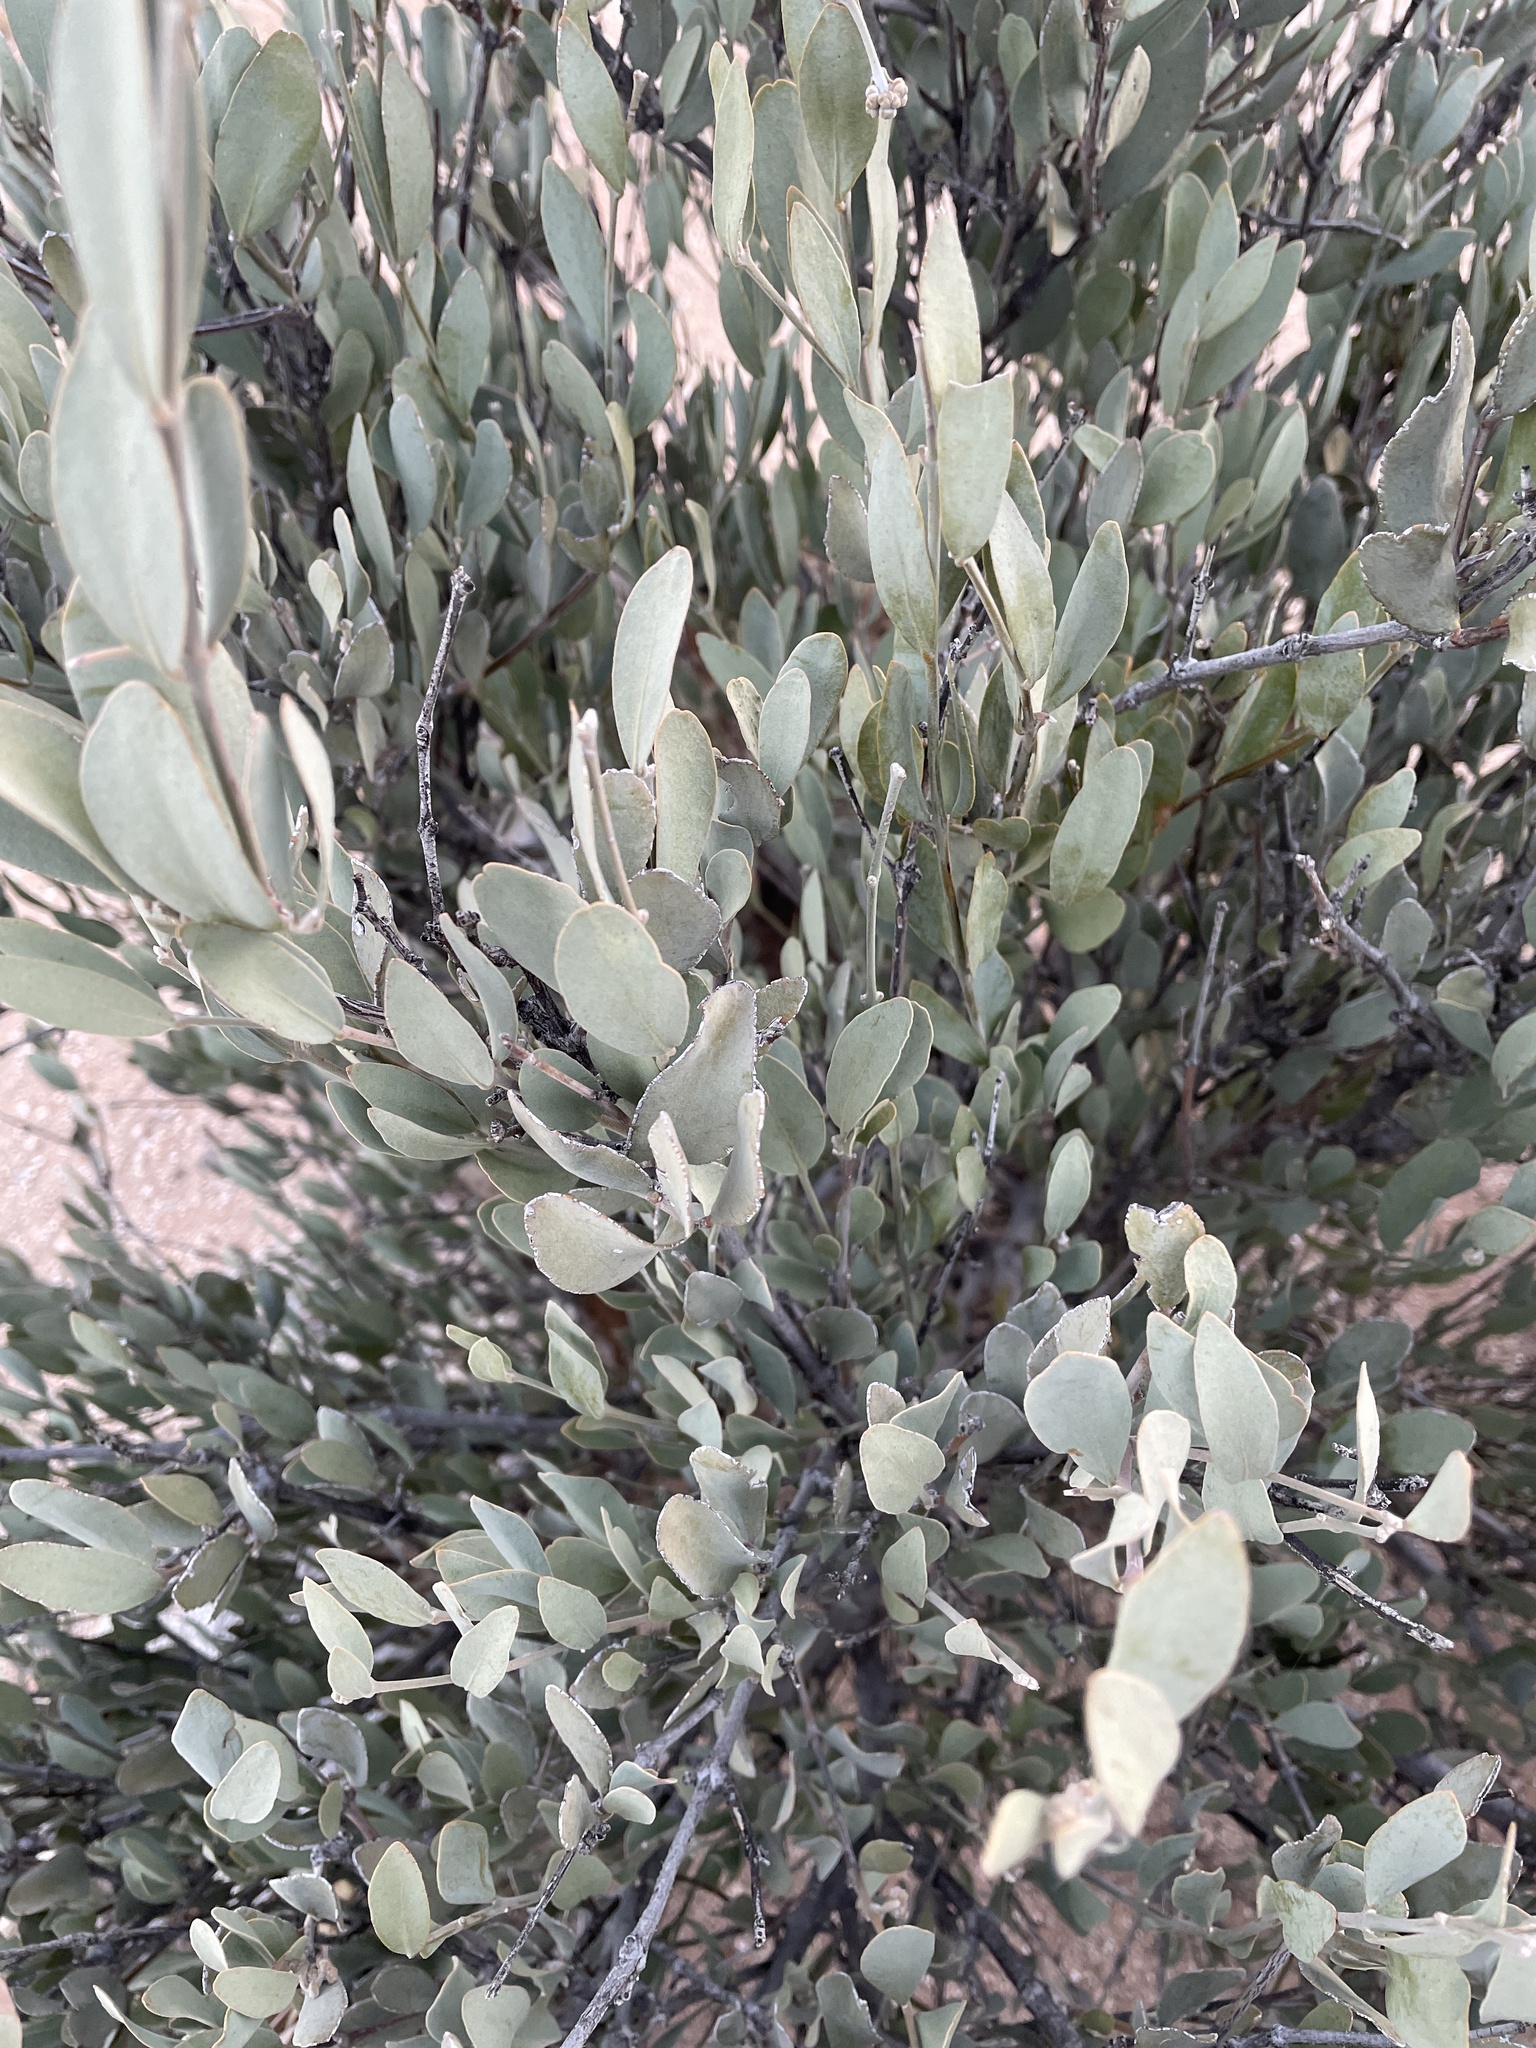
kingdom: Plantae
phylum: Tracheophyta
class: Magnoliopsida
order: Caryophyllales
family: Simmondsiaceae
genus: Simmondsia
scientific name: Simmondsia chinensis
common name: Jojoba
